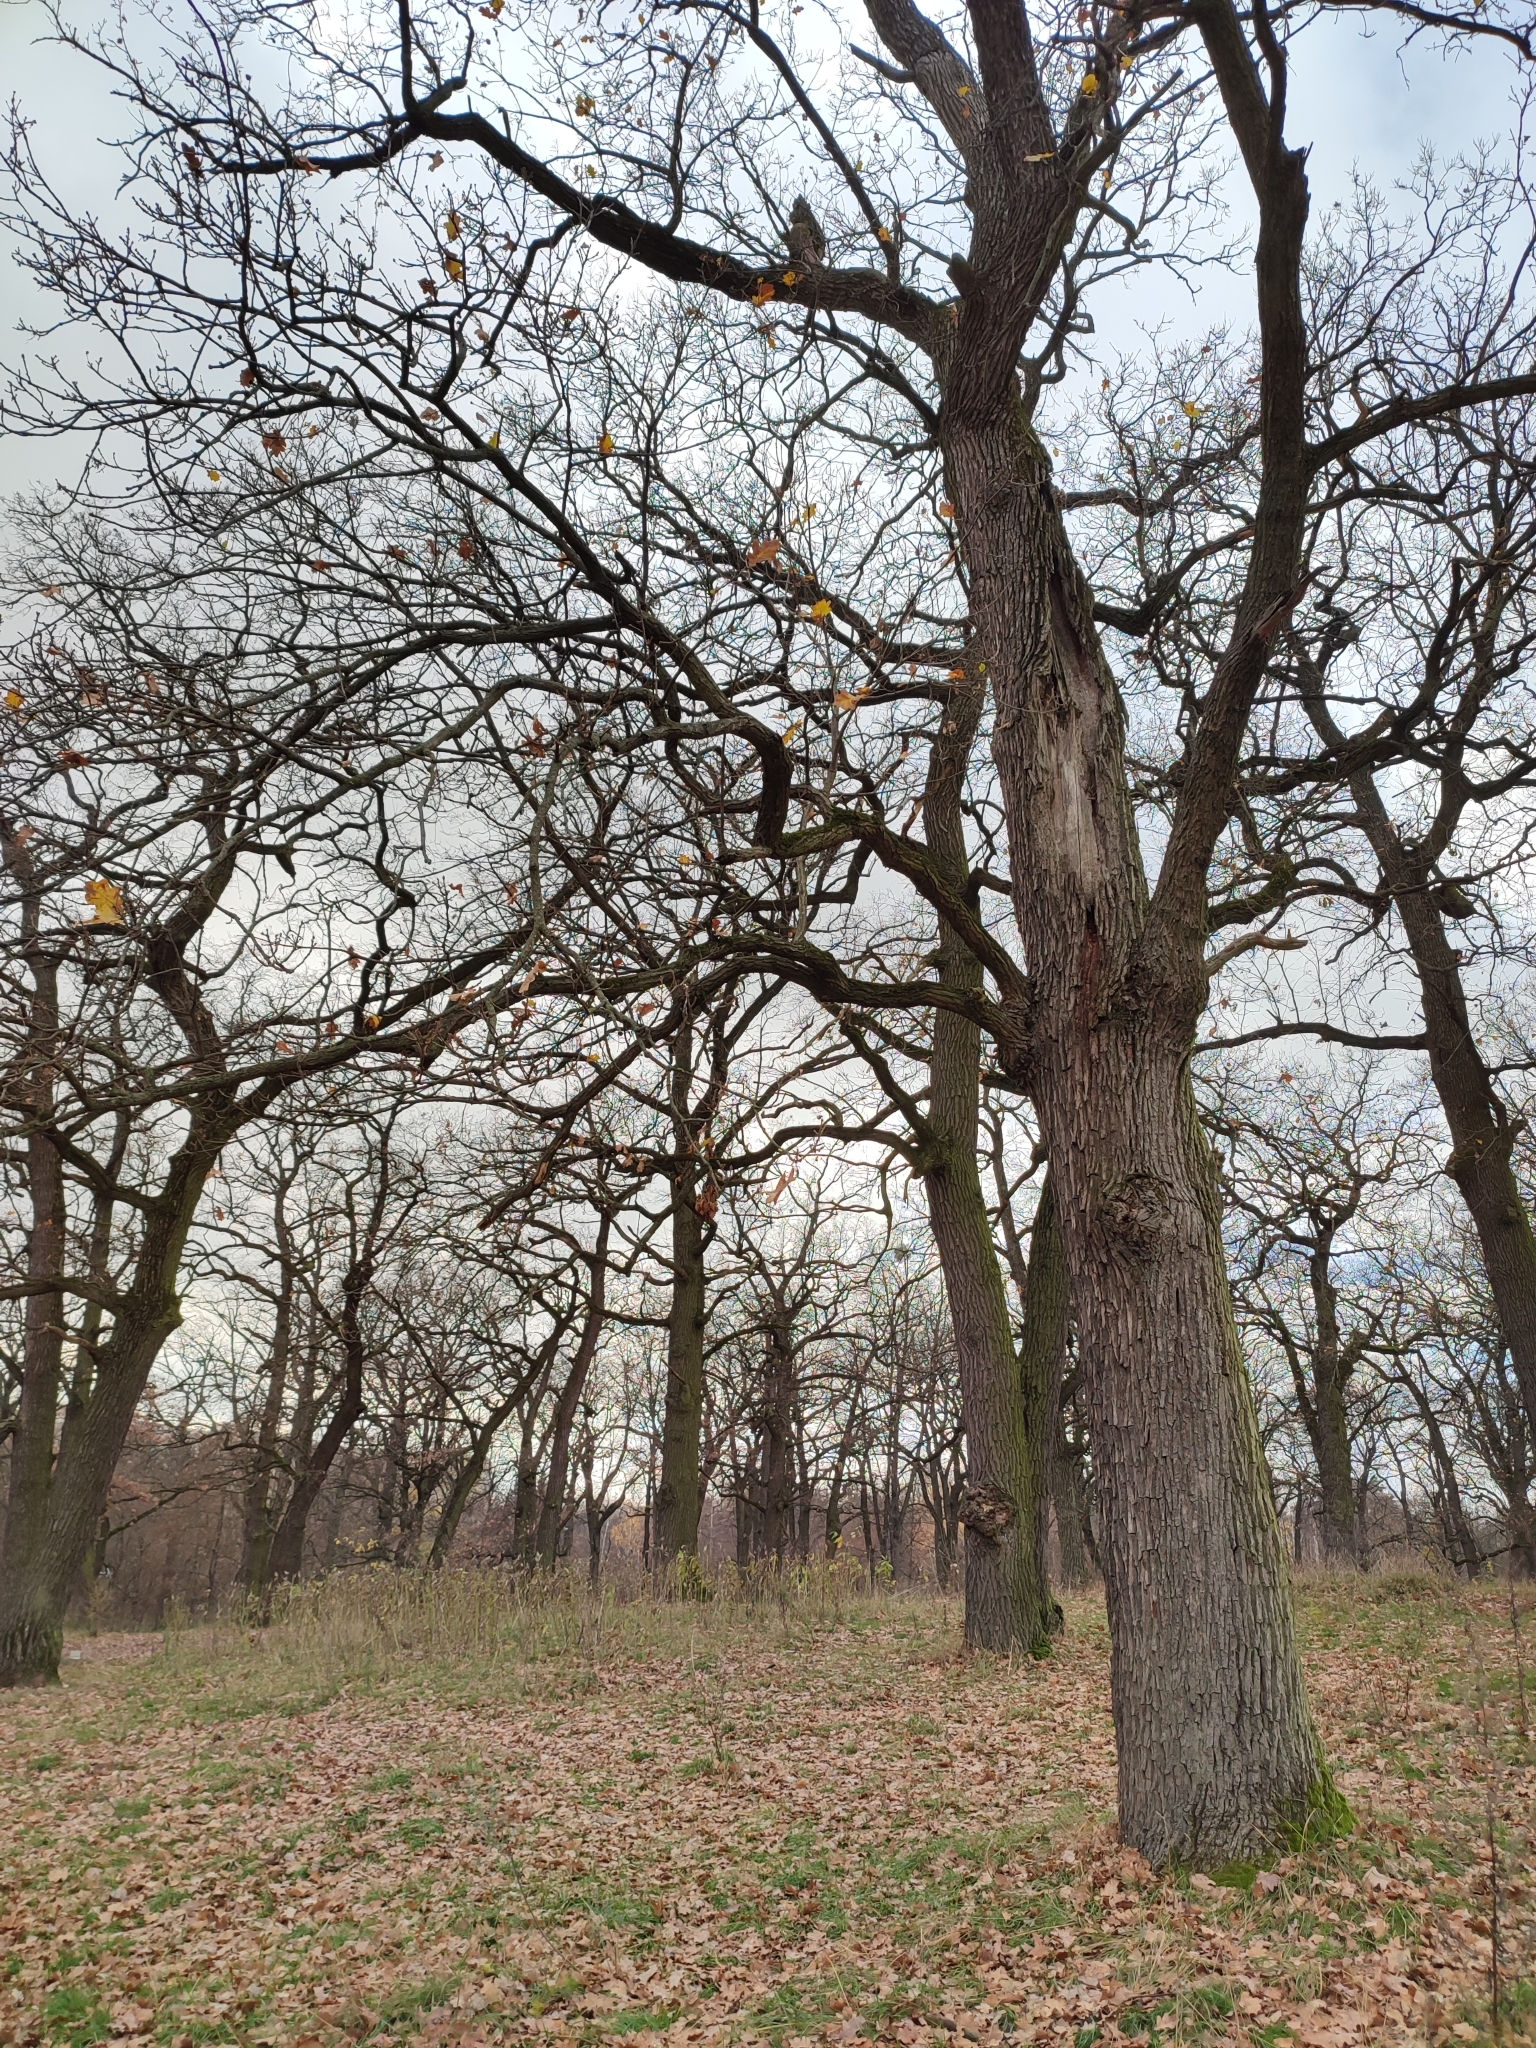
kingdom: Plantae
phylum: Tracheophyta
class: Magnoliopsida
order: Fagales
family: Fagaceae
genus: Quercus
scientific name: Quercus robur
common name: Pedunculate oak
